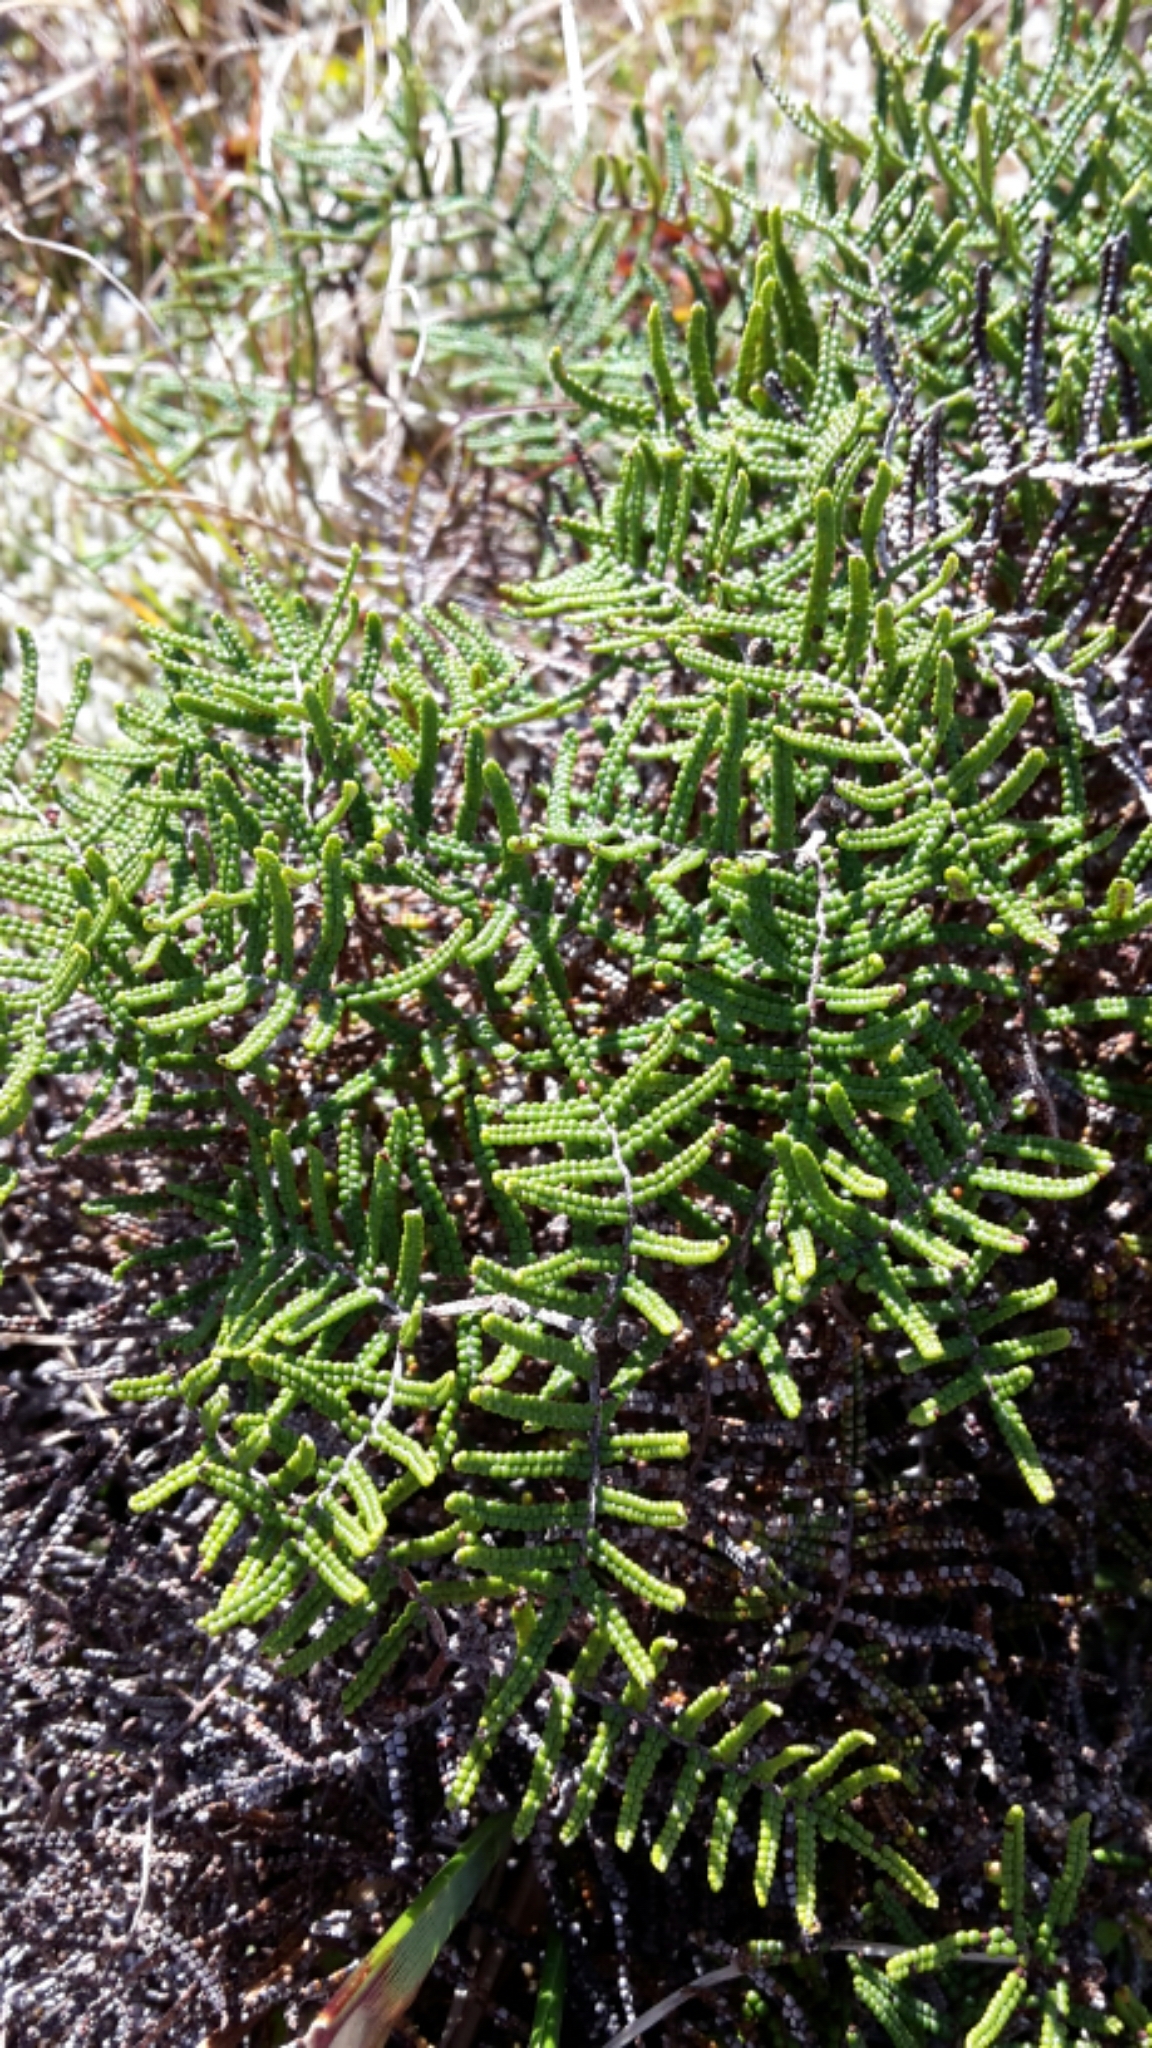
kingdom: Plantae
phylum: Tracheophyta
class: Polypodiopsida
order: Gleicheniales
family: Gleicheniaceae
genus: Gleichenia
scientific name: Gleichenia alpina
